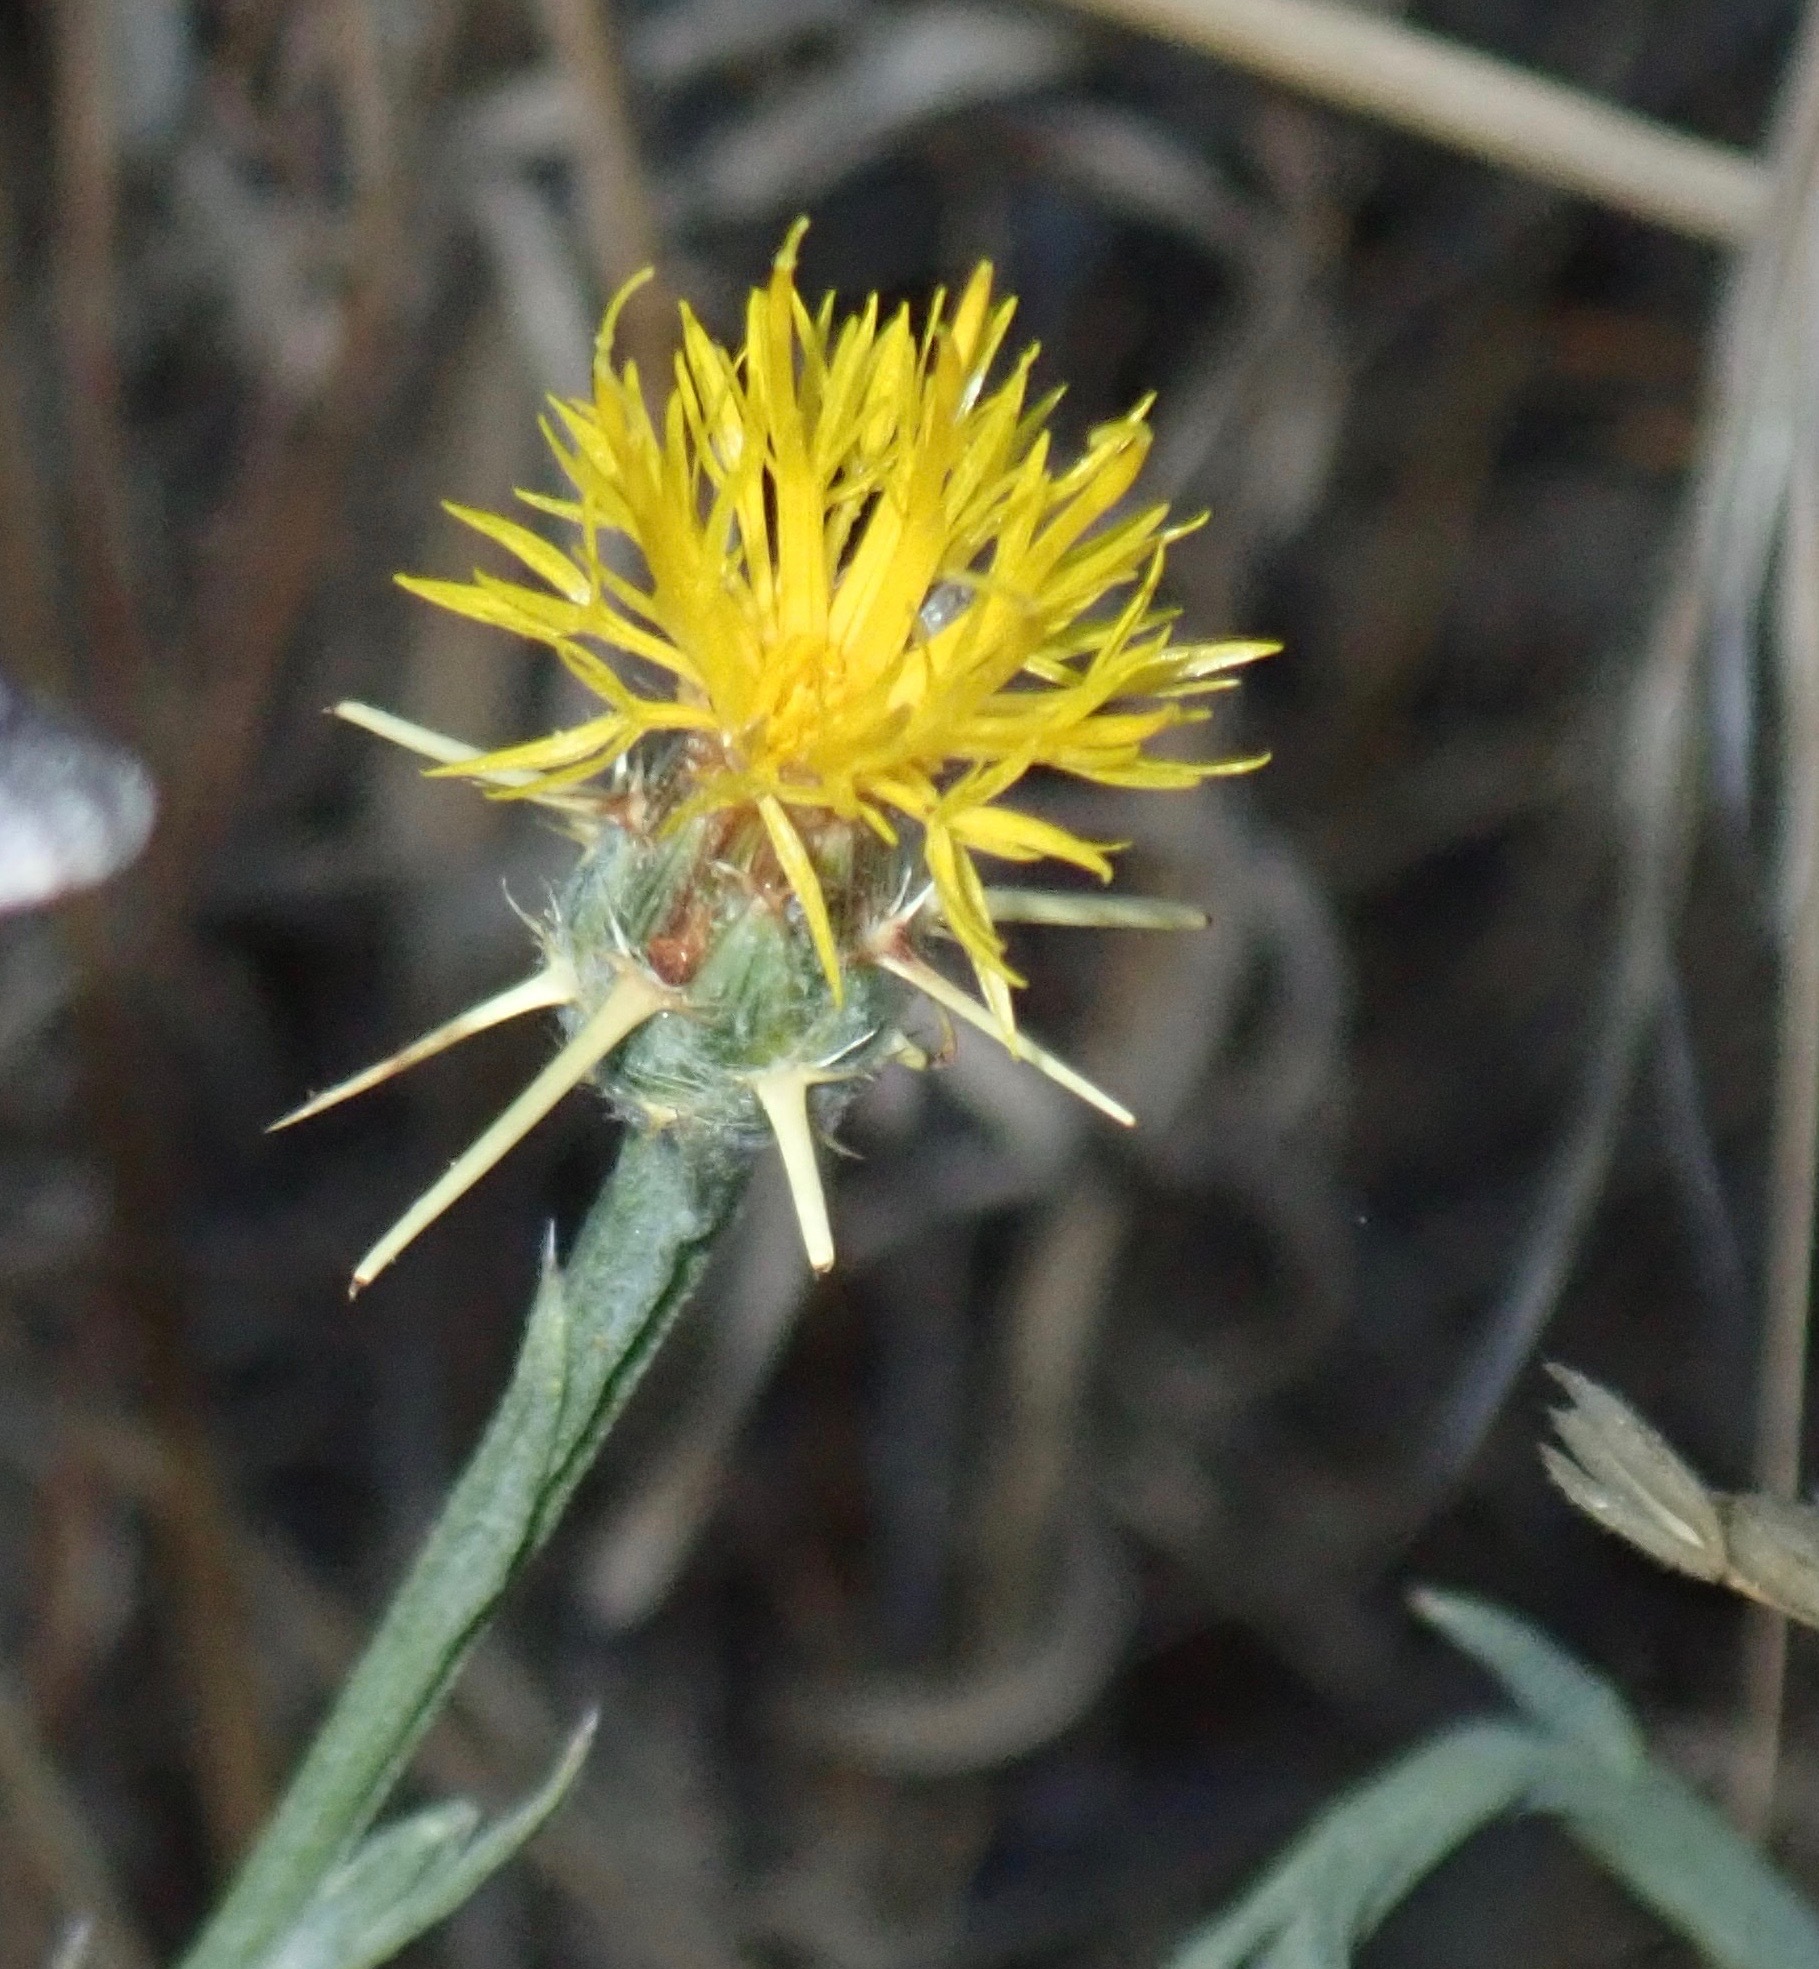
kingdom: Plantae
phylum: Tracheophyta
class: Magnoliopsida
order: Asterales
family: Asteraceae
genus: Centaurea
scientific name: Centaurea solstitialis
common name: Yellow star-thistle
